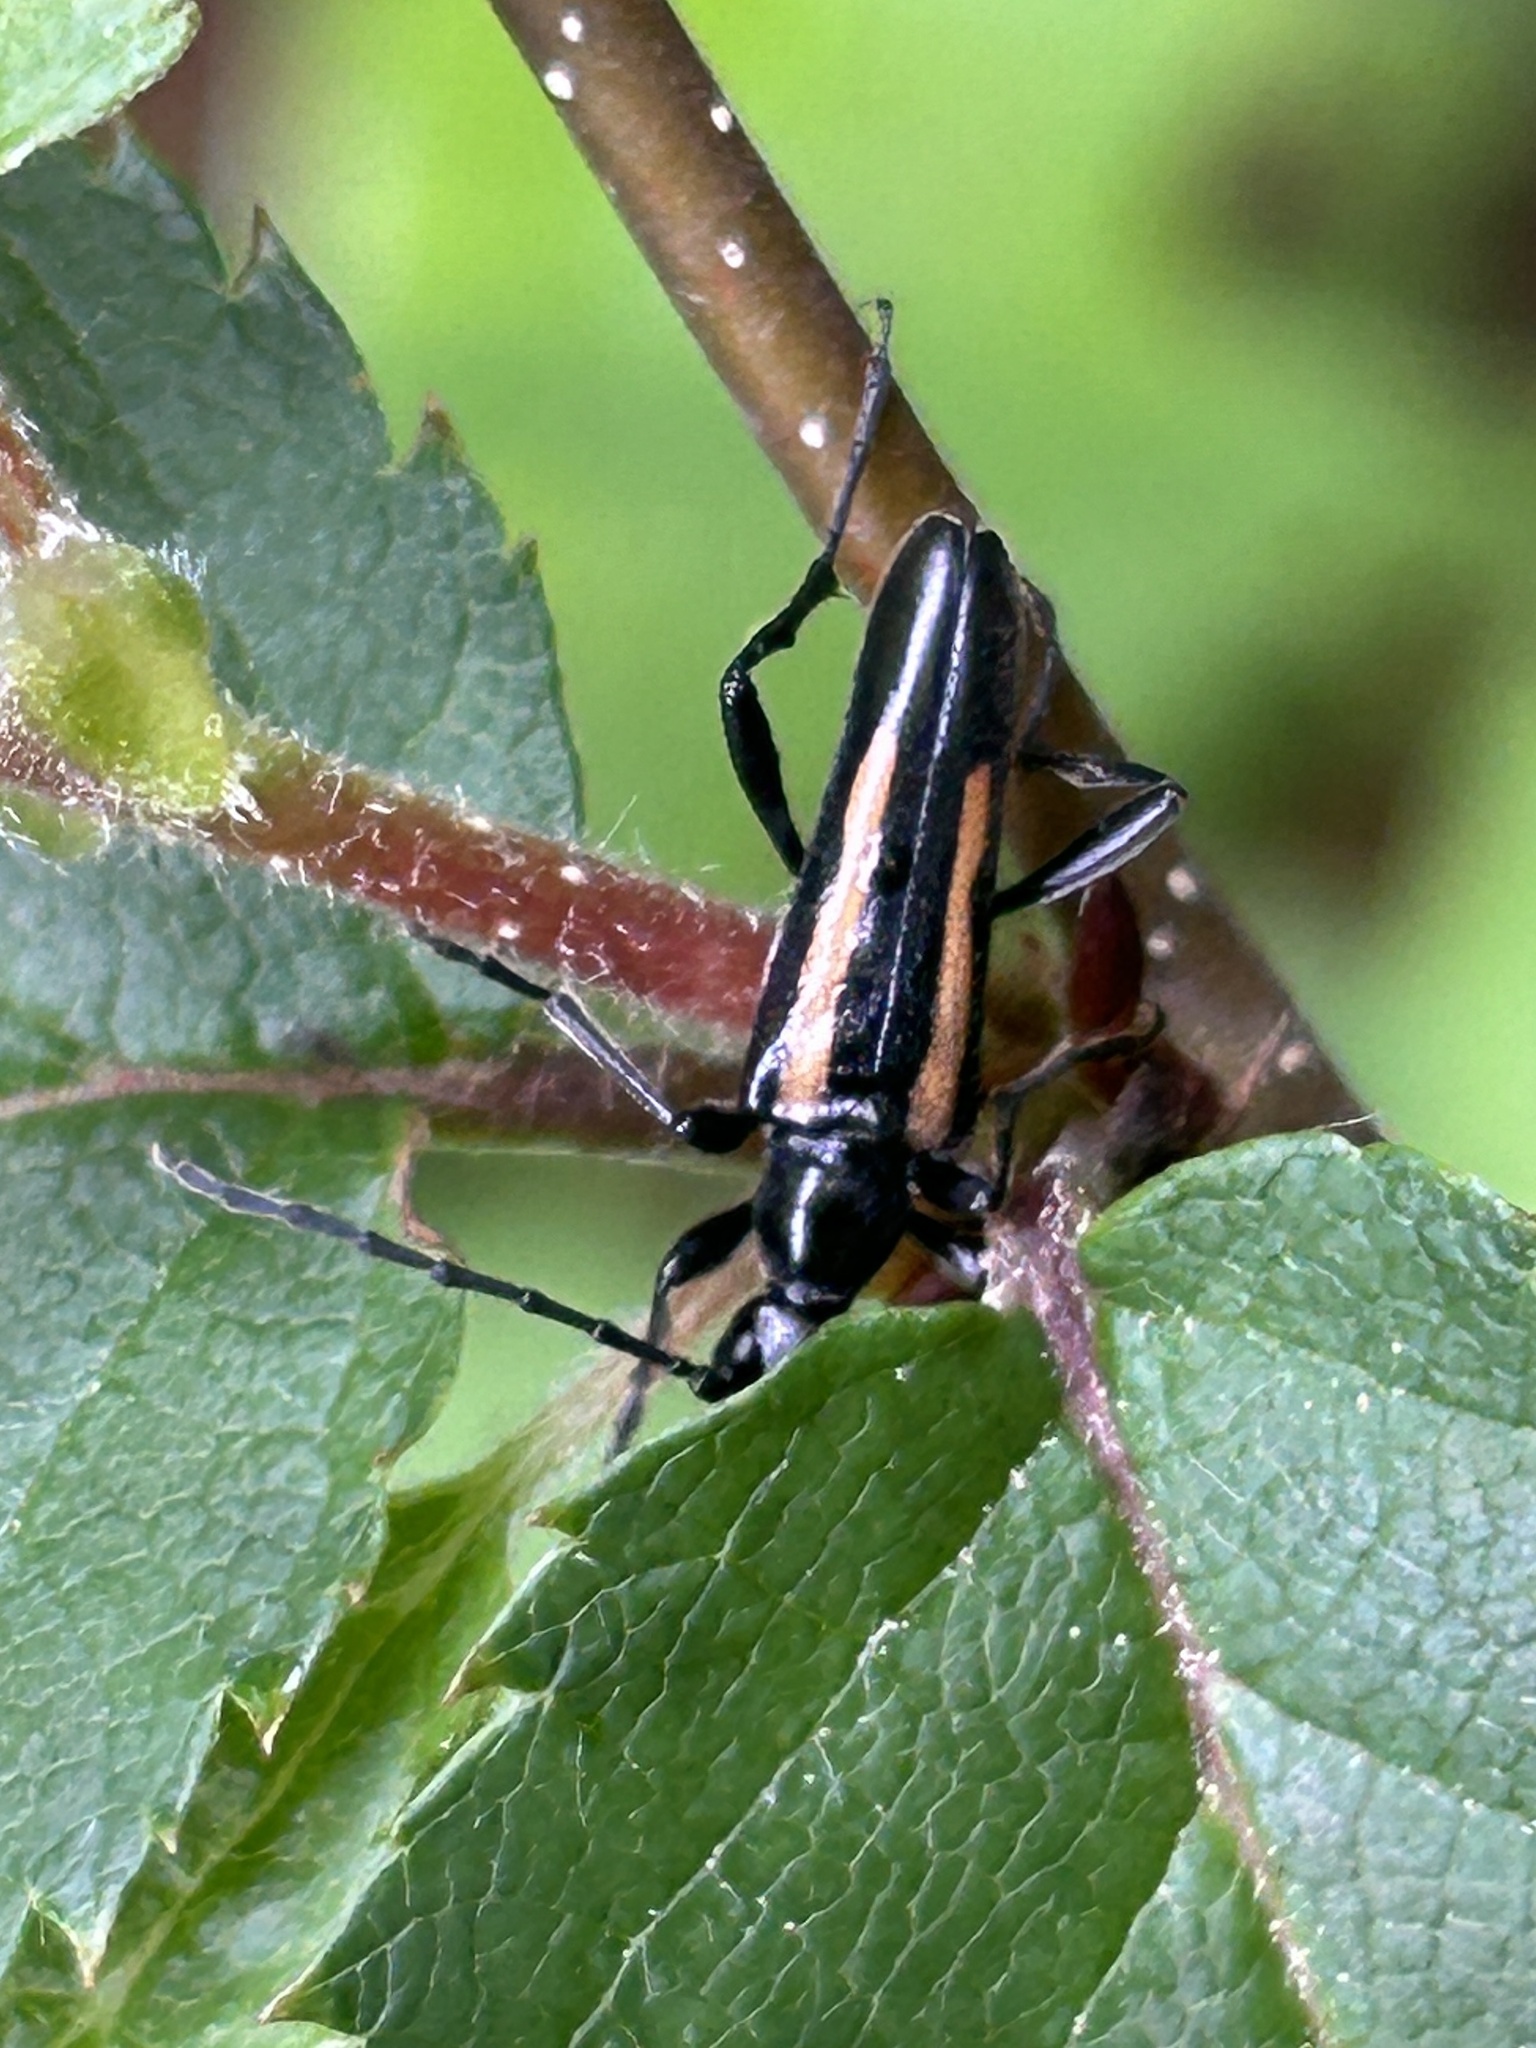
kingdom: Animalia
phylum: Arthropoda
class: Insecta
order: Coleoptera
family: Cerambycidae
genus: Strangalepta
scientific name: Strangalepta abbreviata
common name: Strangalepta flower longhorn beetle
